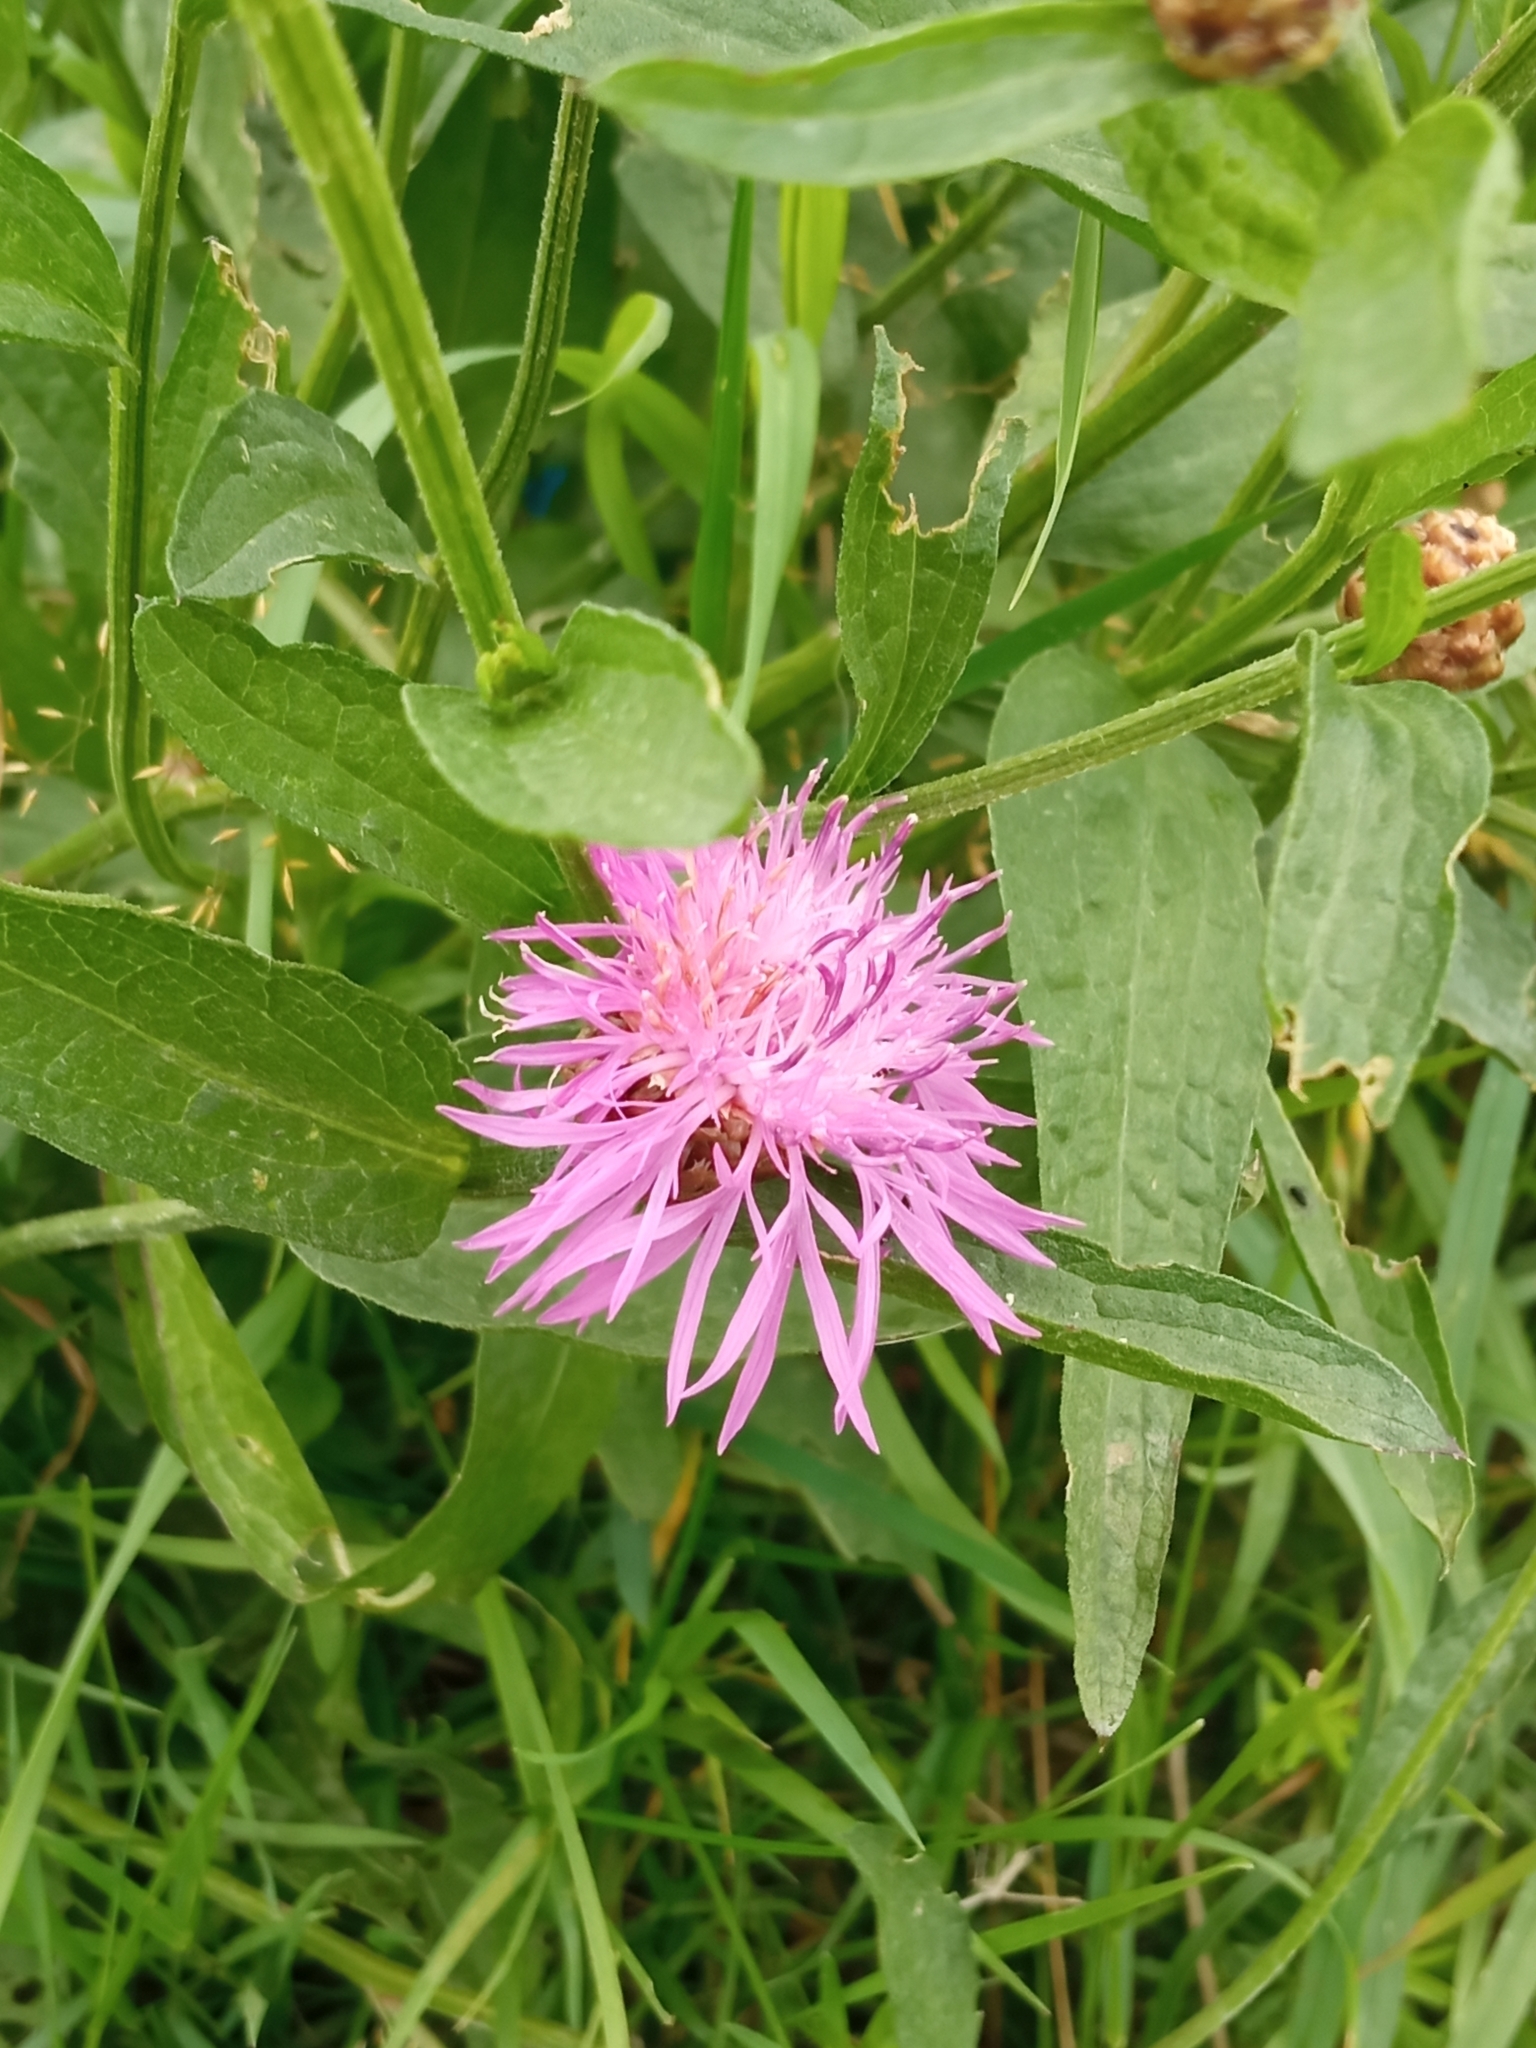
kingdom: Plantae
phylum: Tracheophyta
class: Magnoliopsida
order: Asterales
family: Asteraceae
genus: Centaurea
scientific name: Centaurea jacea
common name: Brown knapweed
